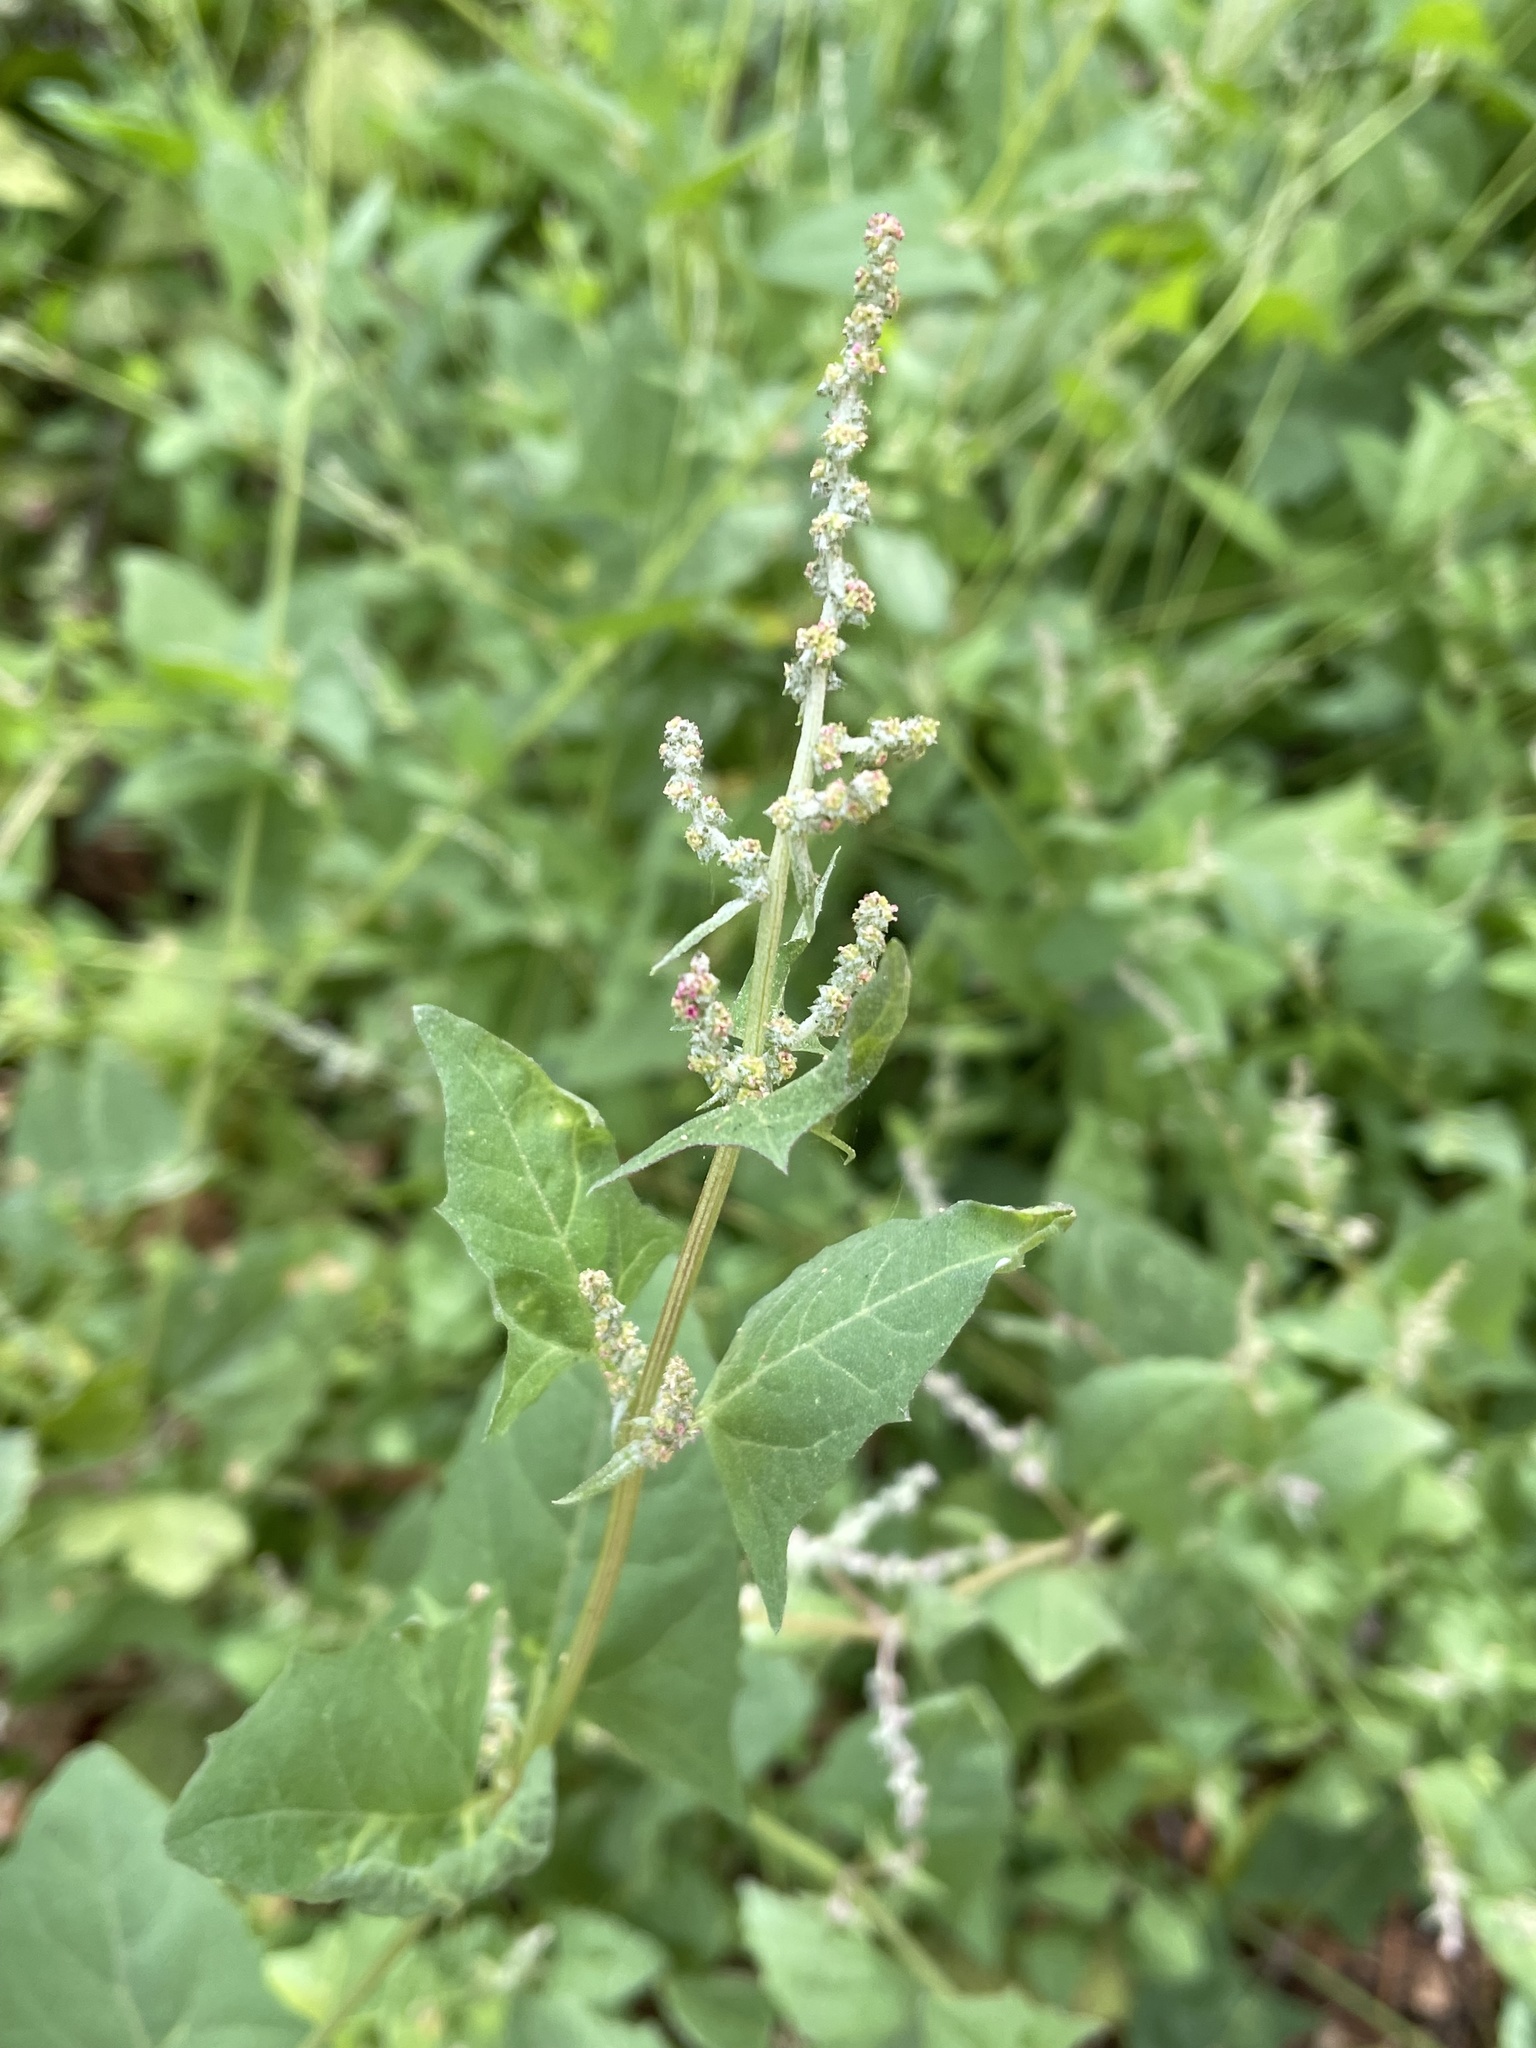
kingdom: Plantae
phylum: Tracheophyta
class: Magnoliopsida
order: Caryophyllales
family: Amaranthaceae
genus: Atriplex
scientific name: Atriplex prostrata
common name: Spear-leaved orache
